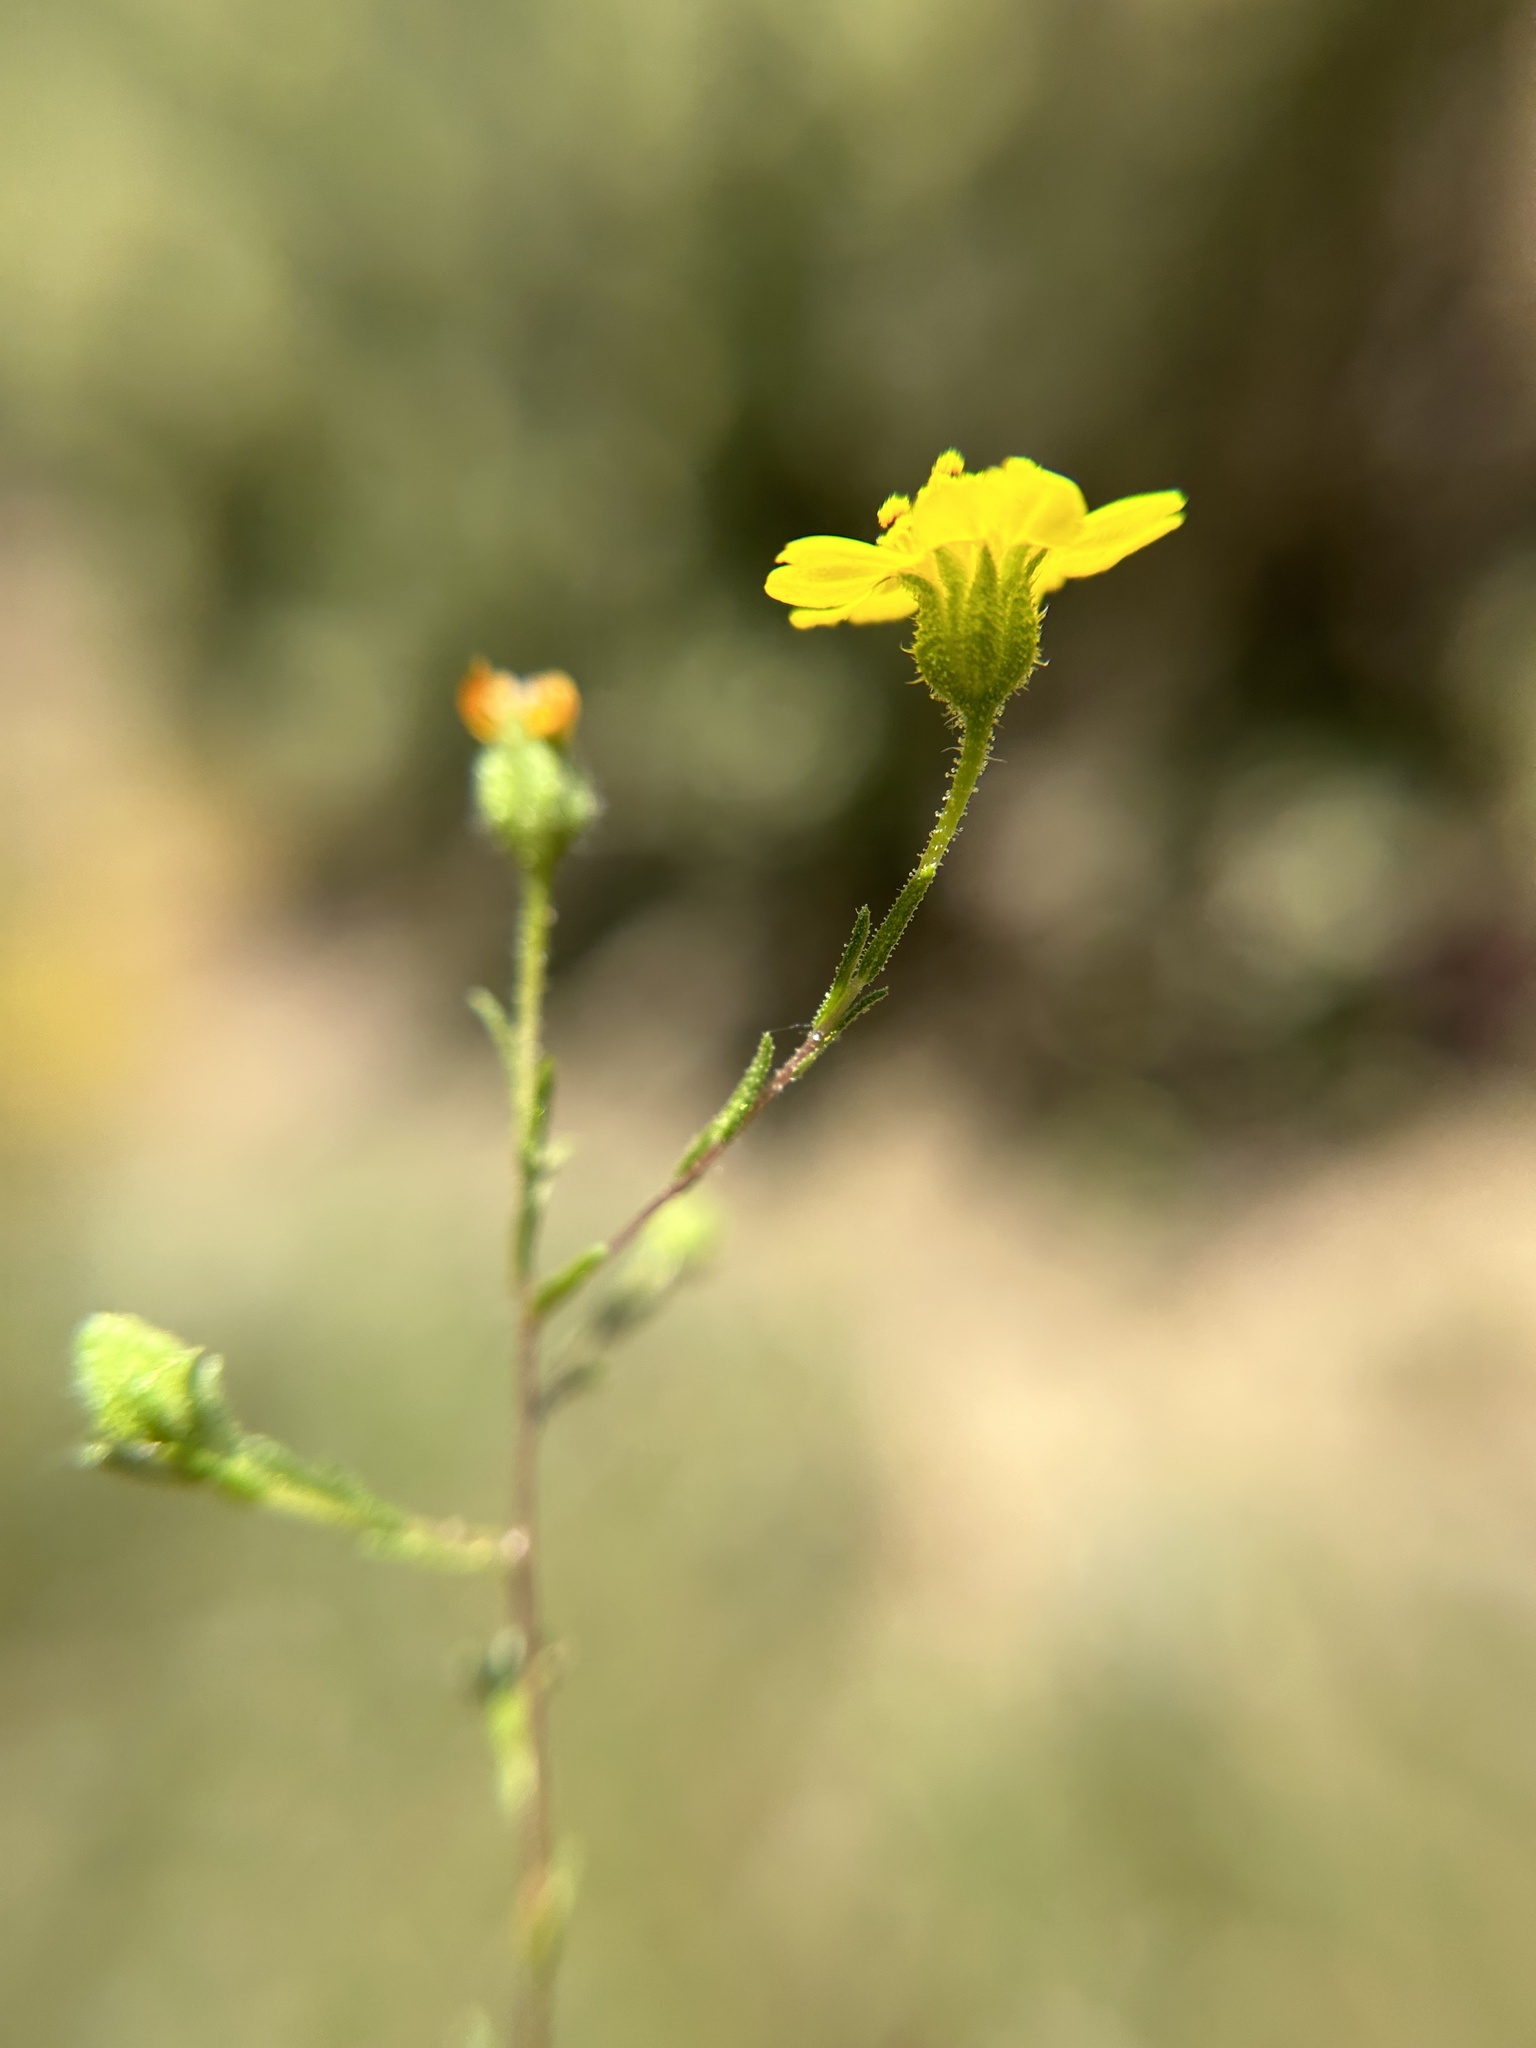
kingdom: Plantae
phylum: Tracheophyta
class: Magnoliopsida
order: Asterales
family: Asteraceae
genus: Deinandra
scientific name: Deinandra pentactis
